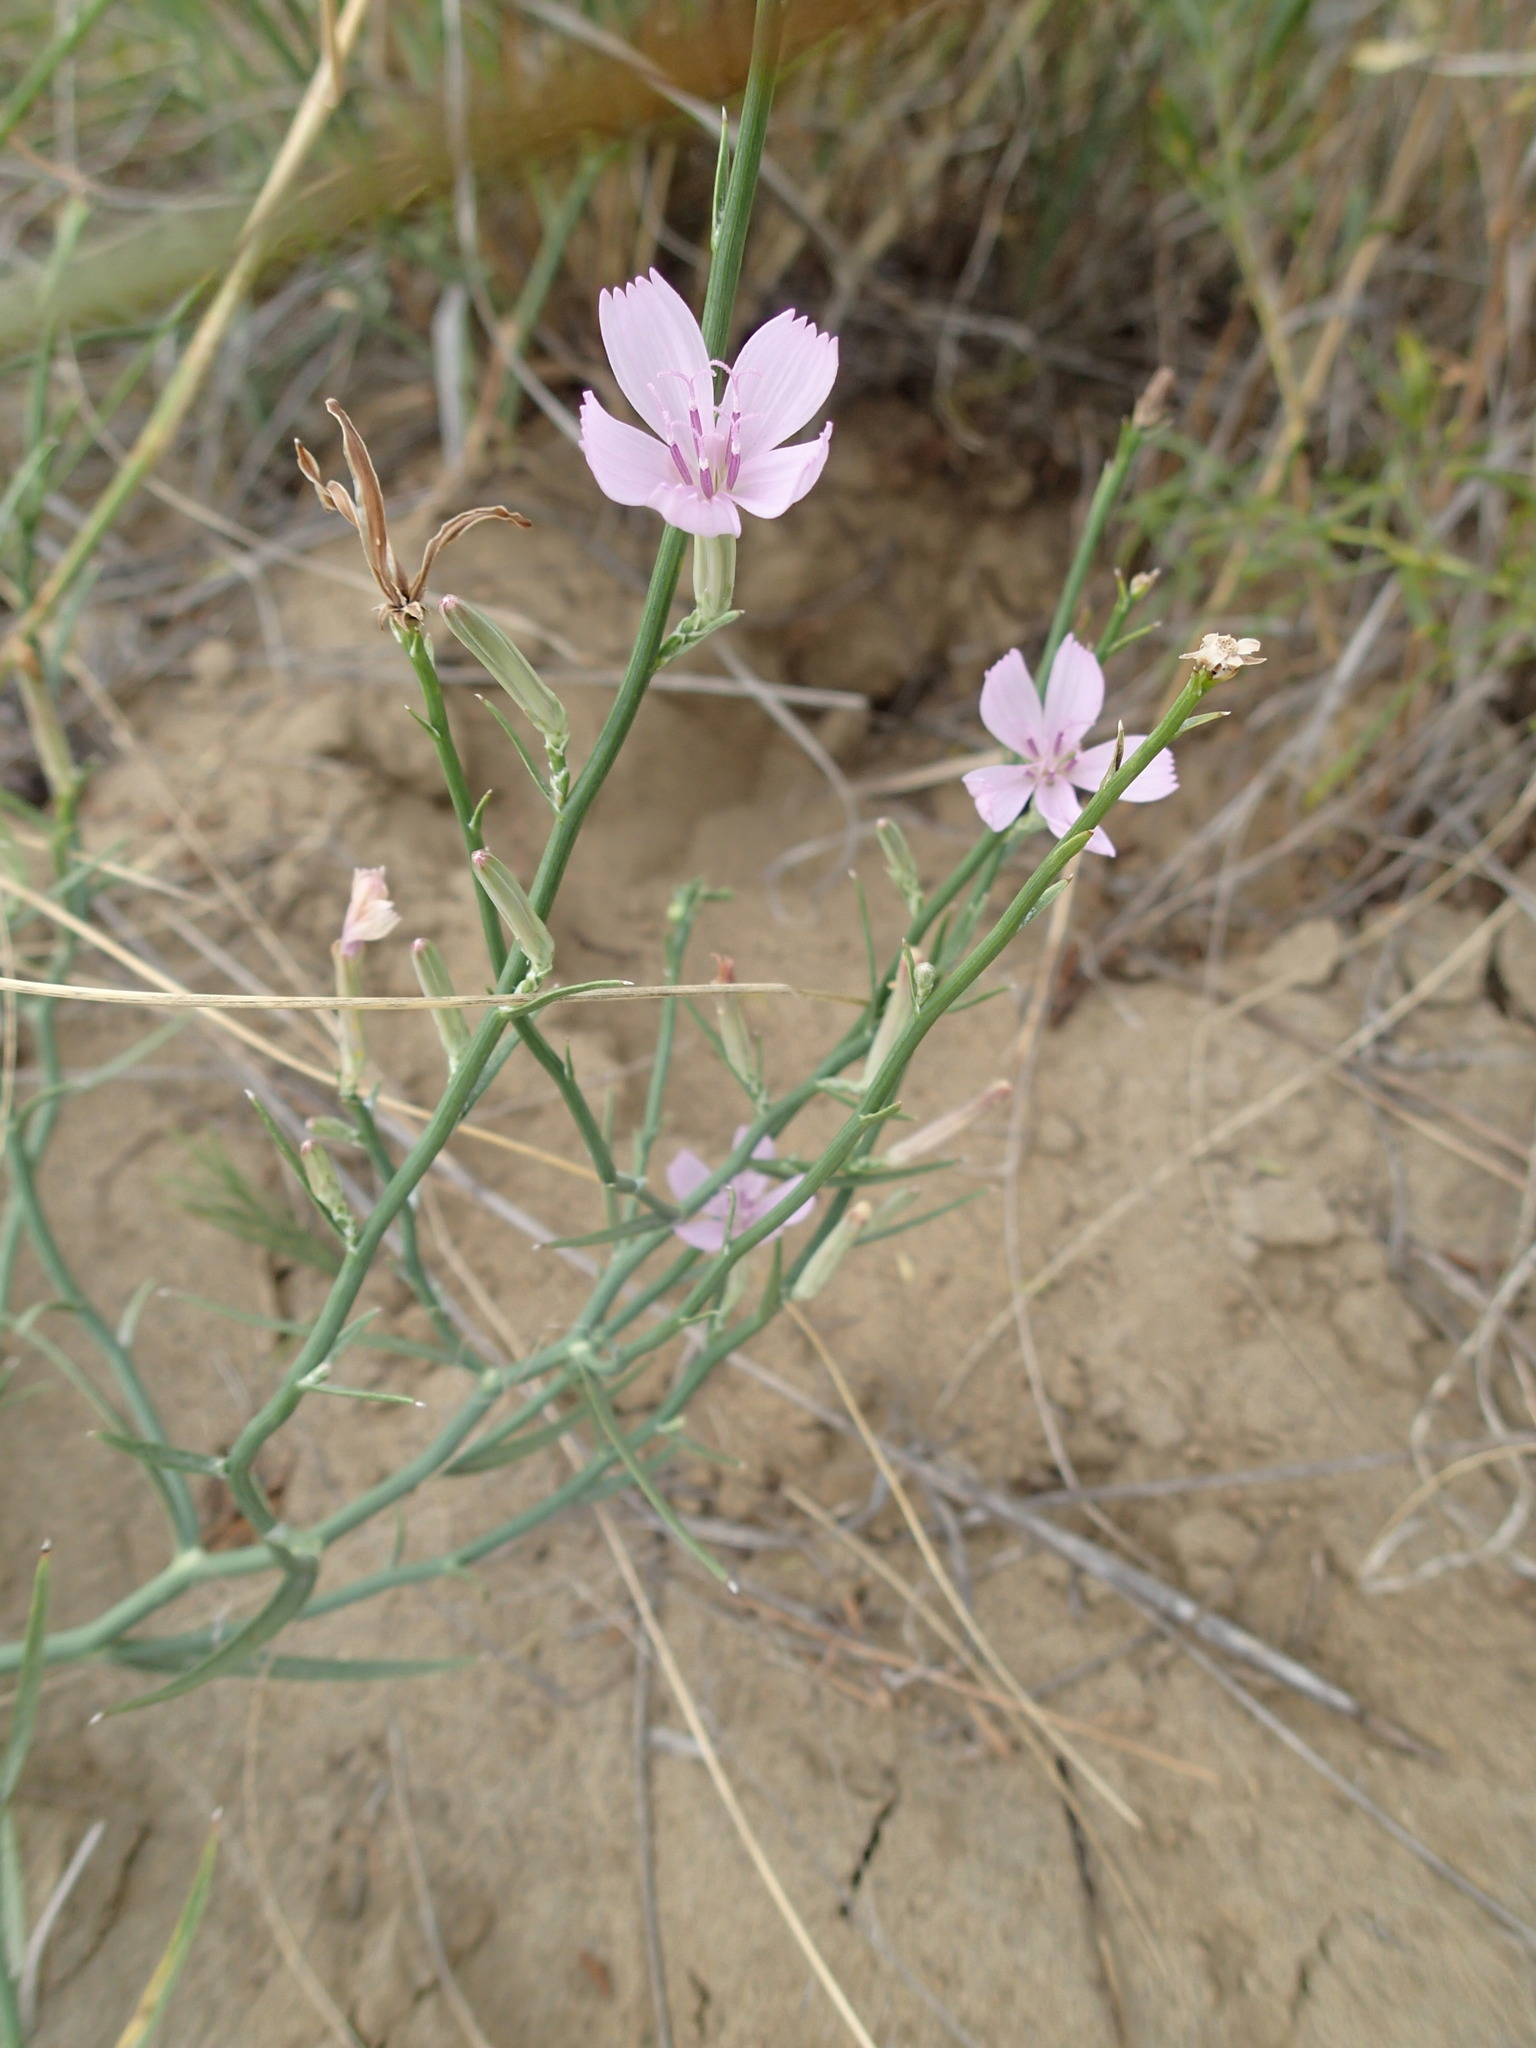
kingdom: Plantae
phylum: Tracheophyta
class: Magnoliopsida
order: Asterales
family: Asteraceae
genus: Lygodesmia
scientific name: Lygodesmia juncea
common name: Common skeletonweed
